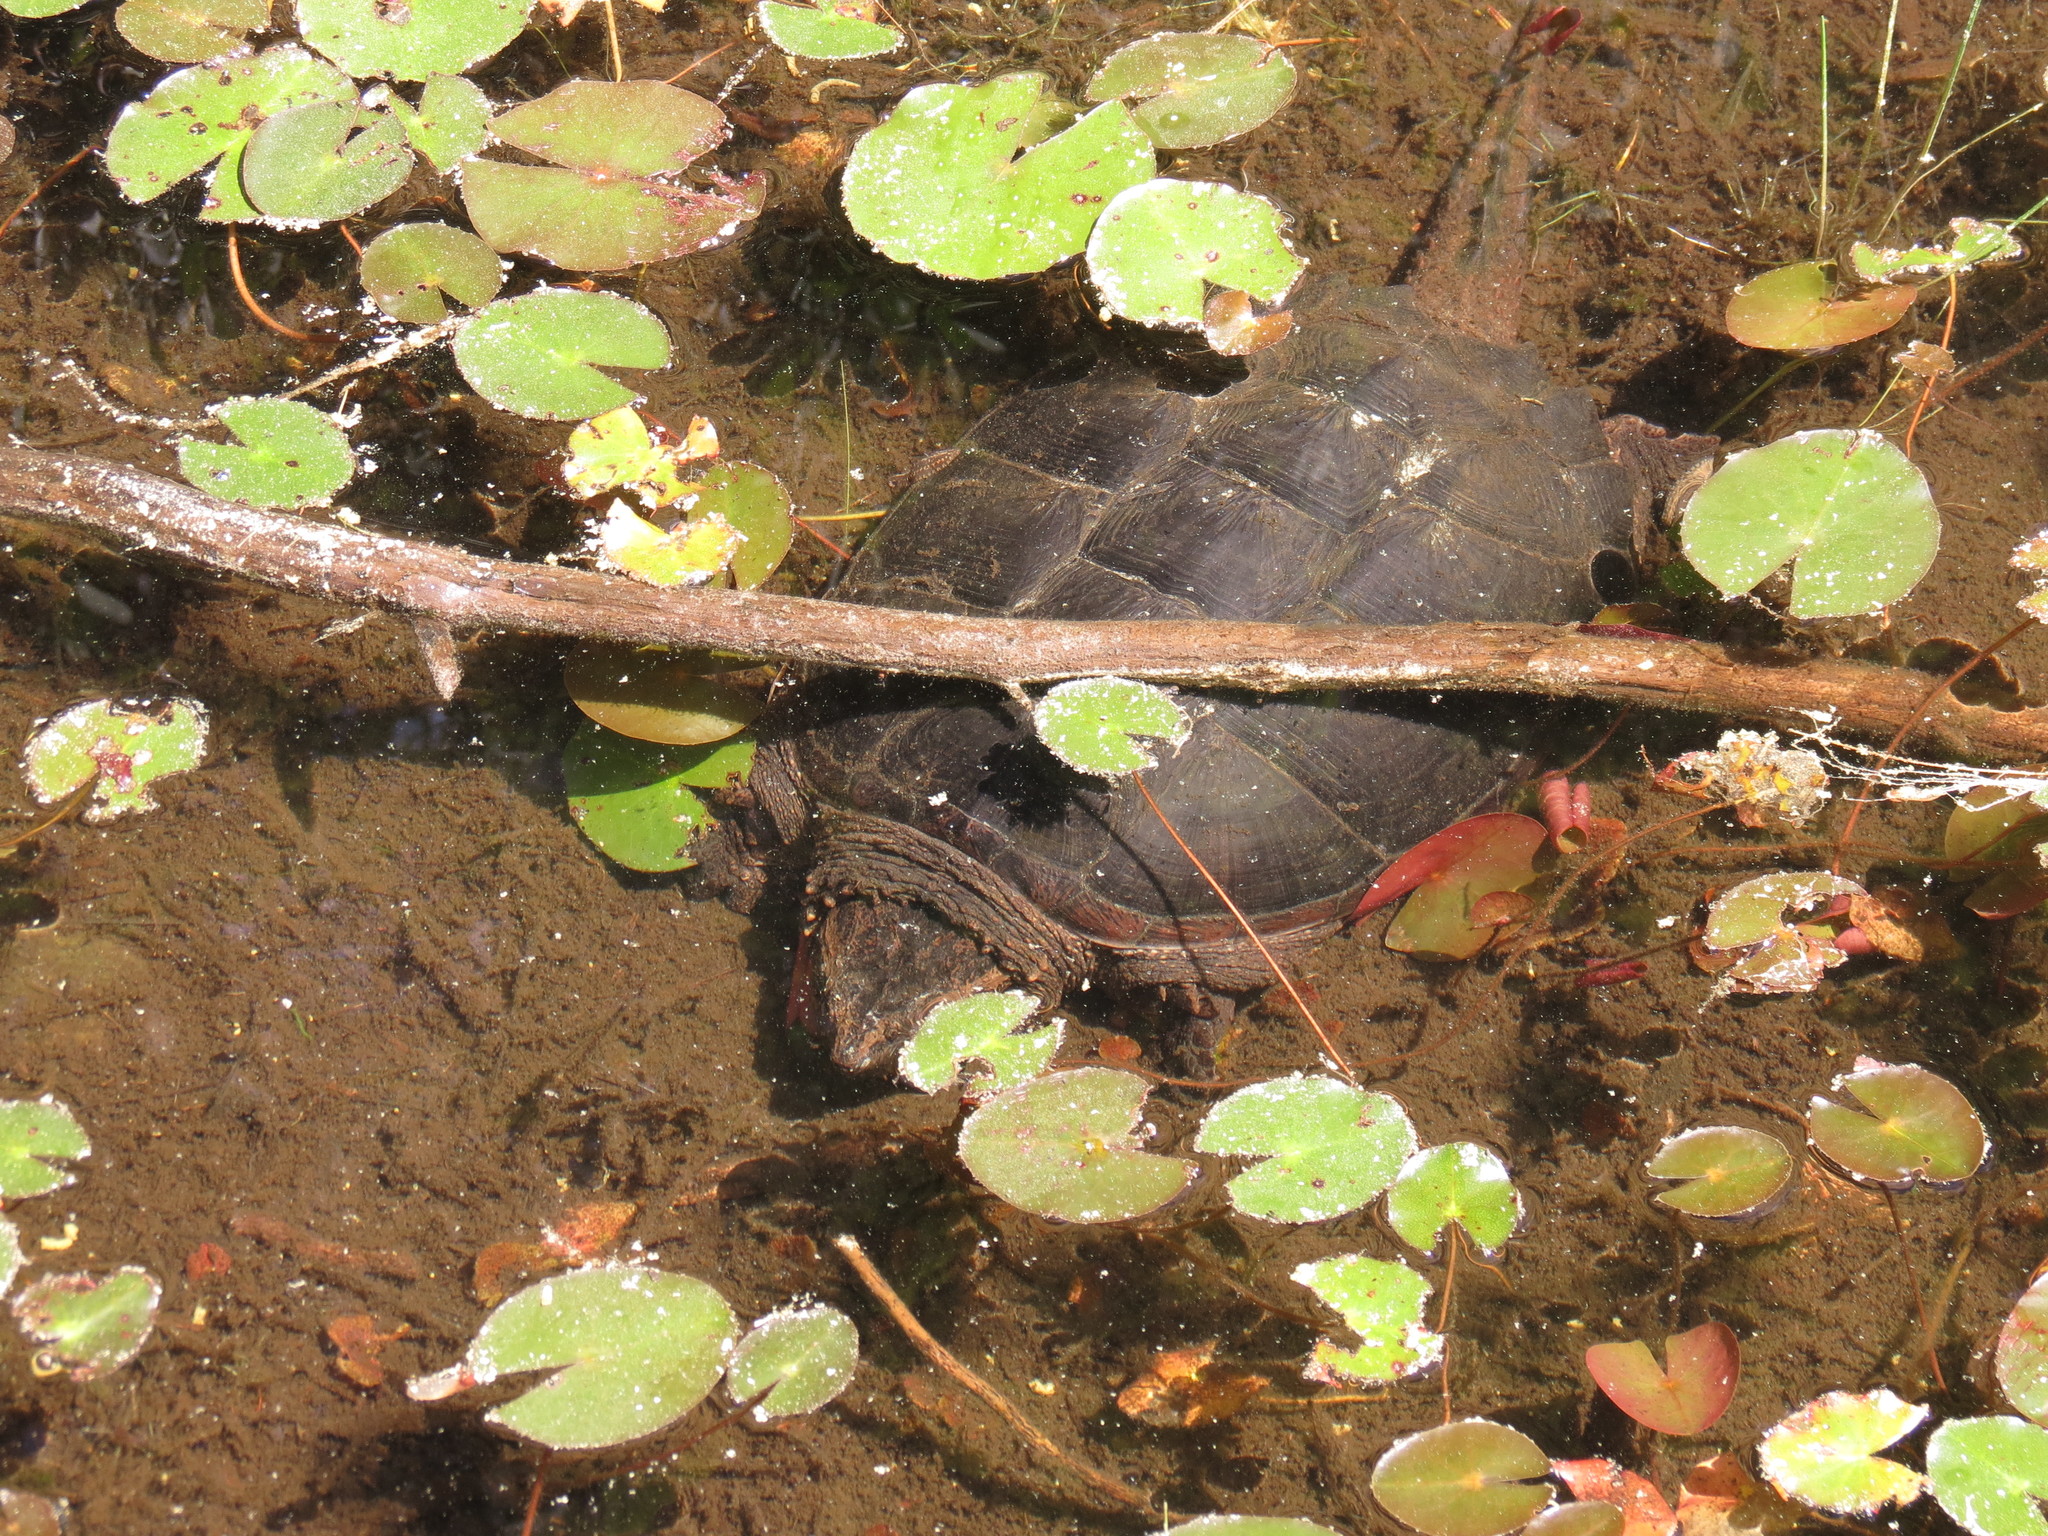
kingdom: Animalia
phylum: Chordata
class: Testudines
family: Chelydridae
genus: Chelydra
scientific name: Chelydra serpentina
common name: Common snapping turtle
